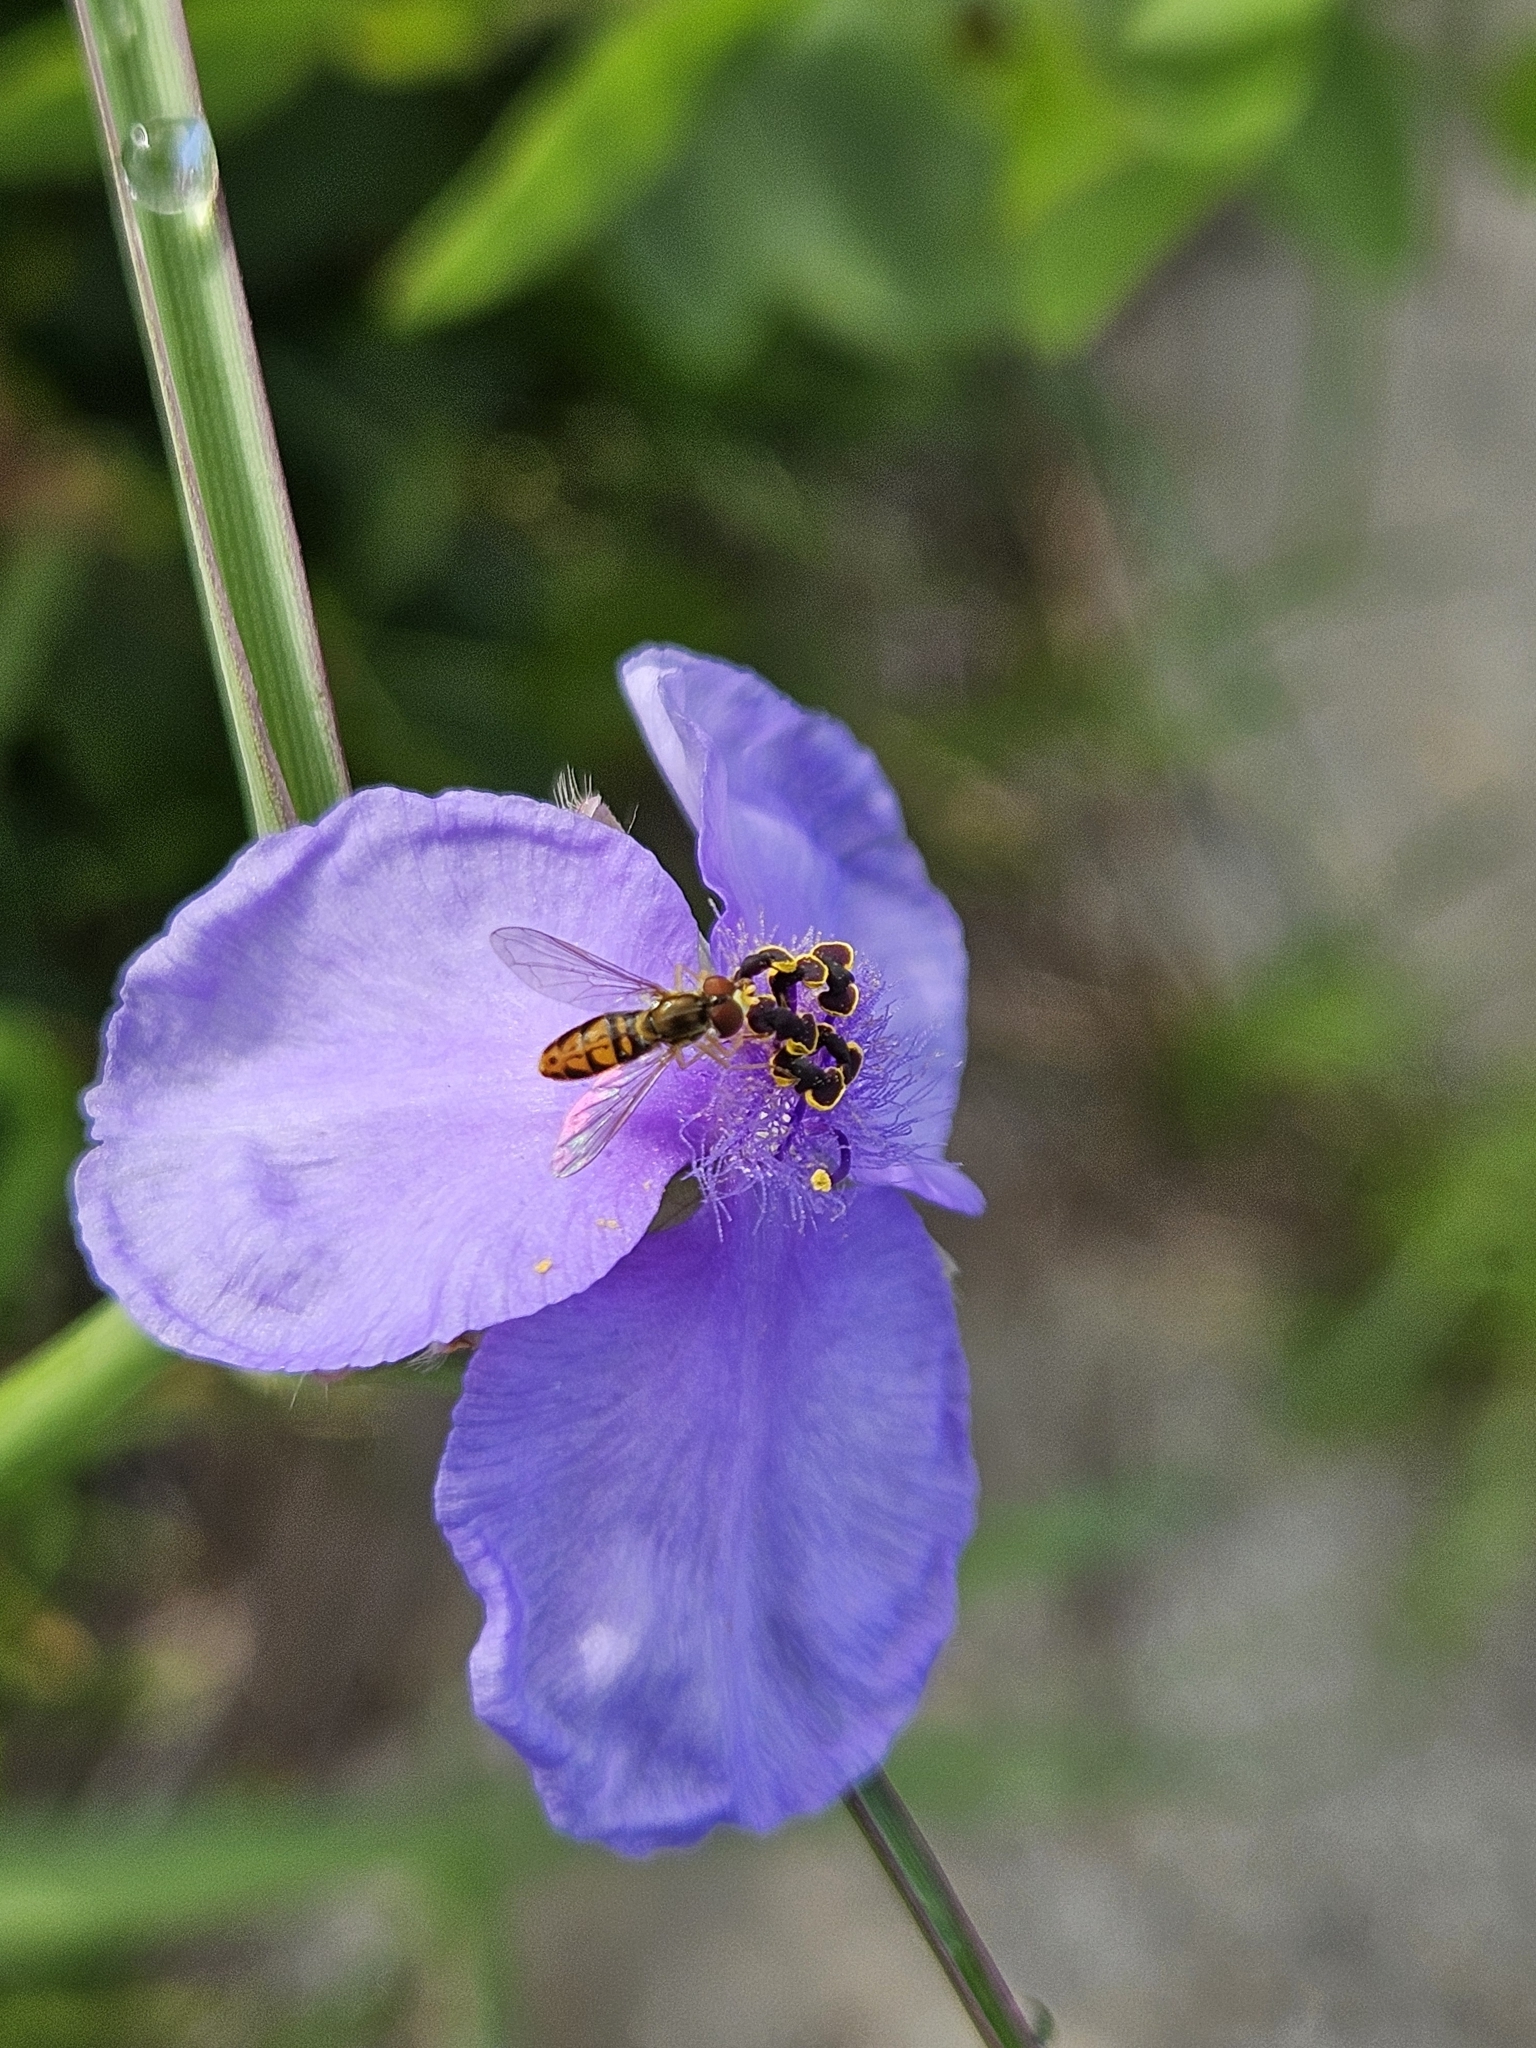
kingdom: Animalia
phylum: Arthropoda
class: Insecta
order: Diptera
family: Syrphidae
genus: Toxomerus
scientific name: Toxomerus marginatus
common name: Syrphid fly
